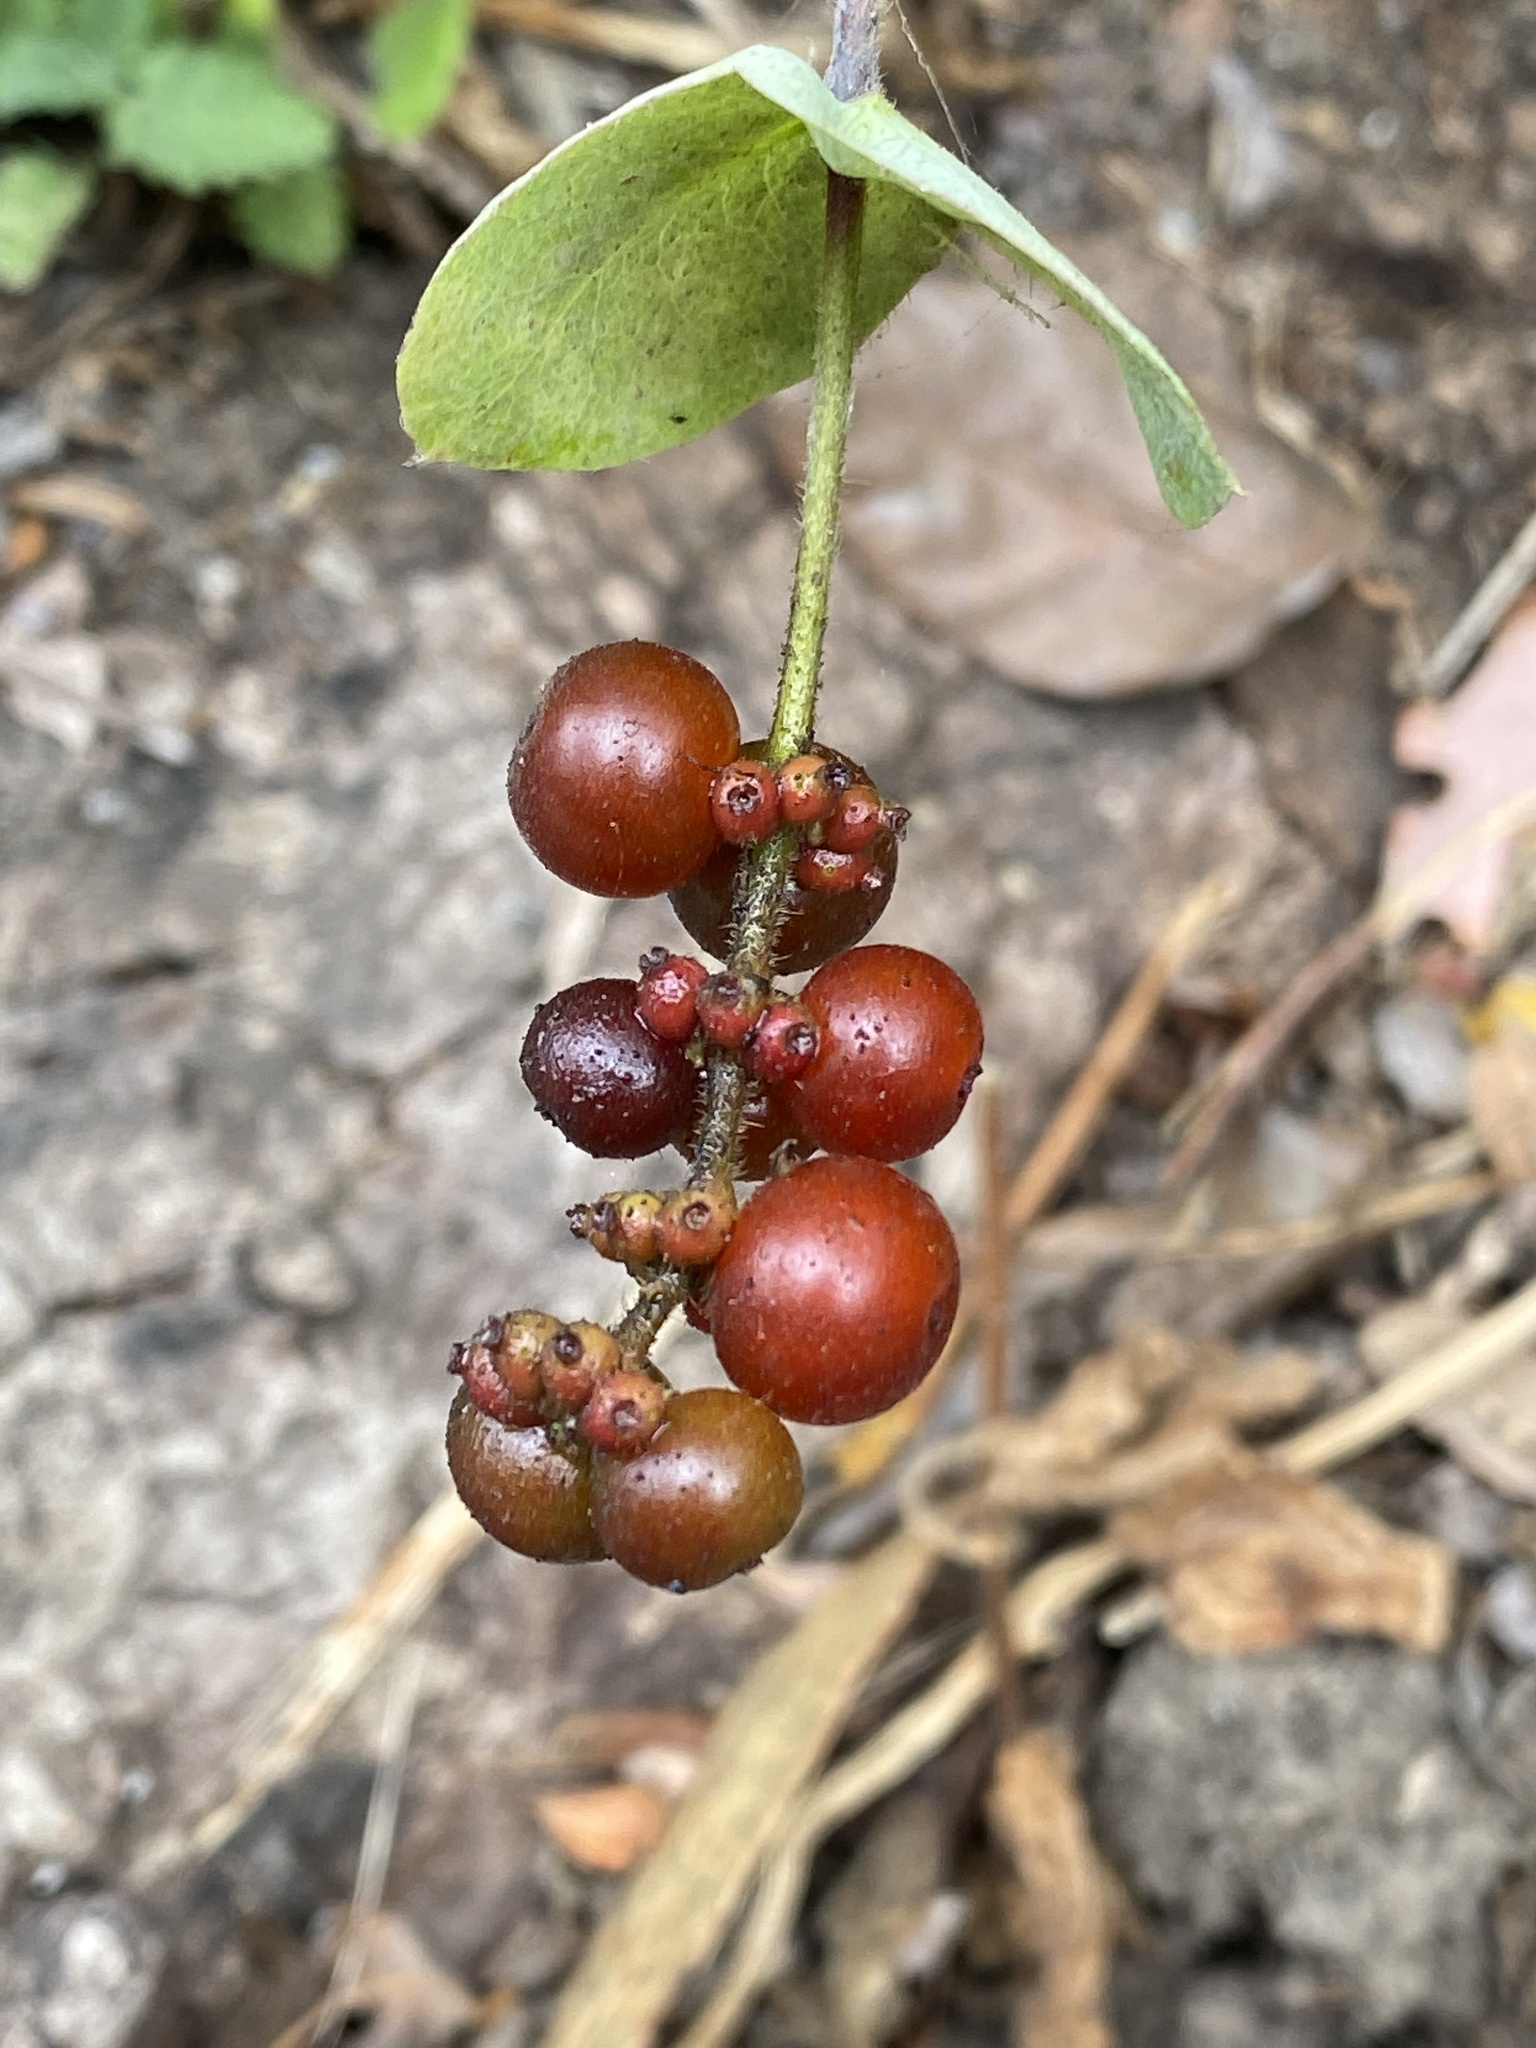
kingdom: Plantae
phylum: Tracheophyta
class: Magnoliopsida
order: Dipsacales
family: Caprifoliaceae
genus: Lonicera
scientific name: Lonicera hispidula
